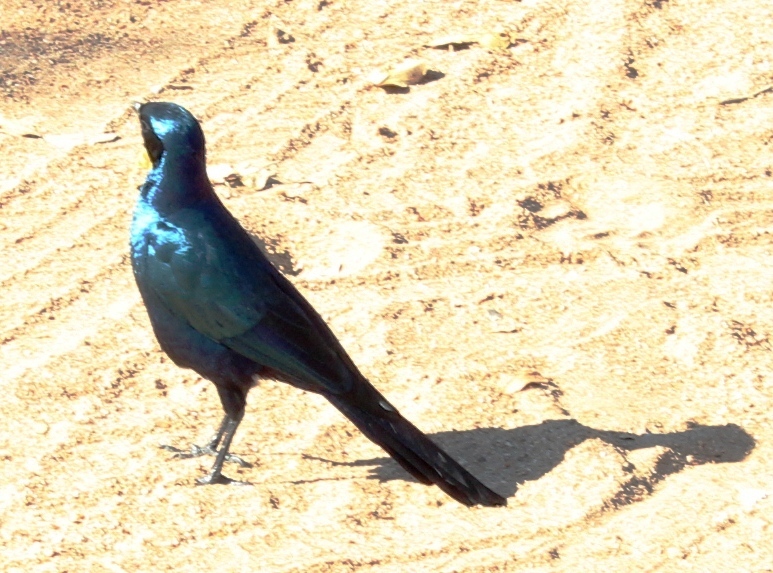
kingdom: Animalia
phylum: Chordata
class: Aves
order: Passeriformes
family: Sturnidae
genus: Lamprotornis
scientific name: Lamprotornis australis
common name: Burchell's starling
